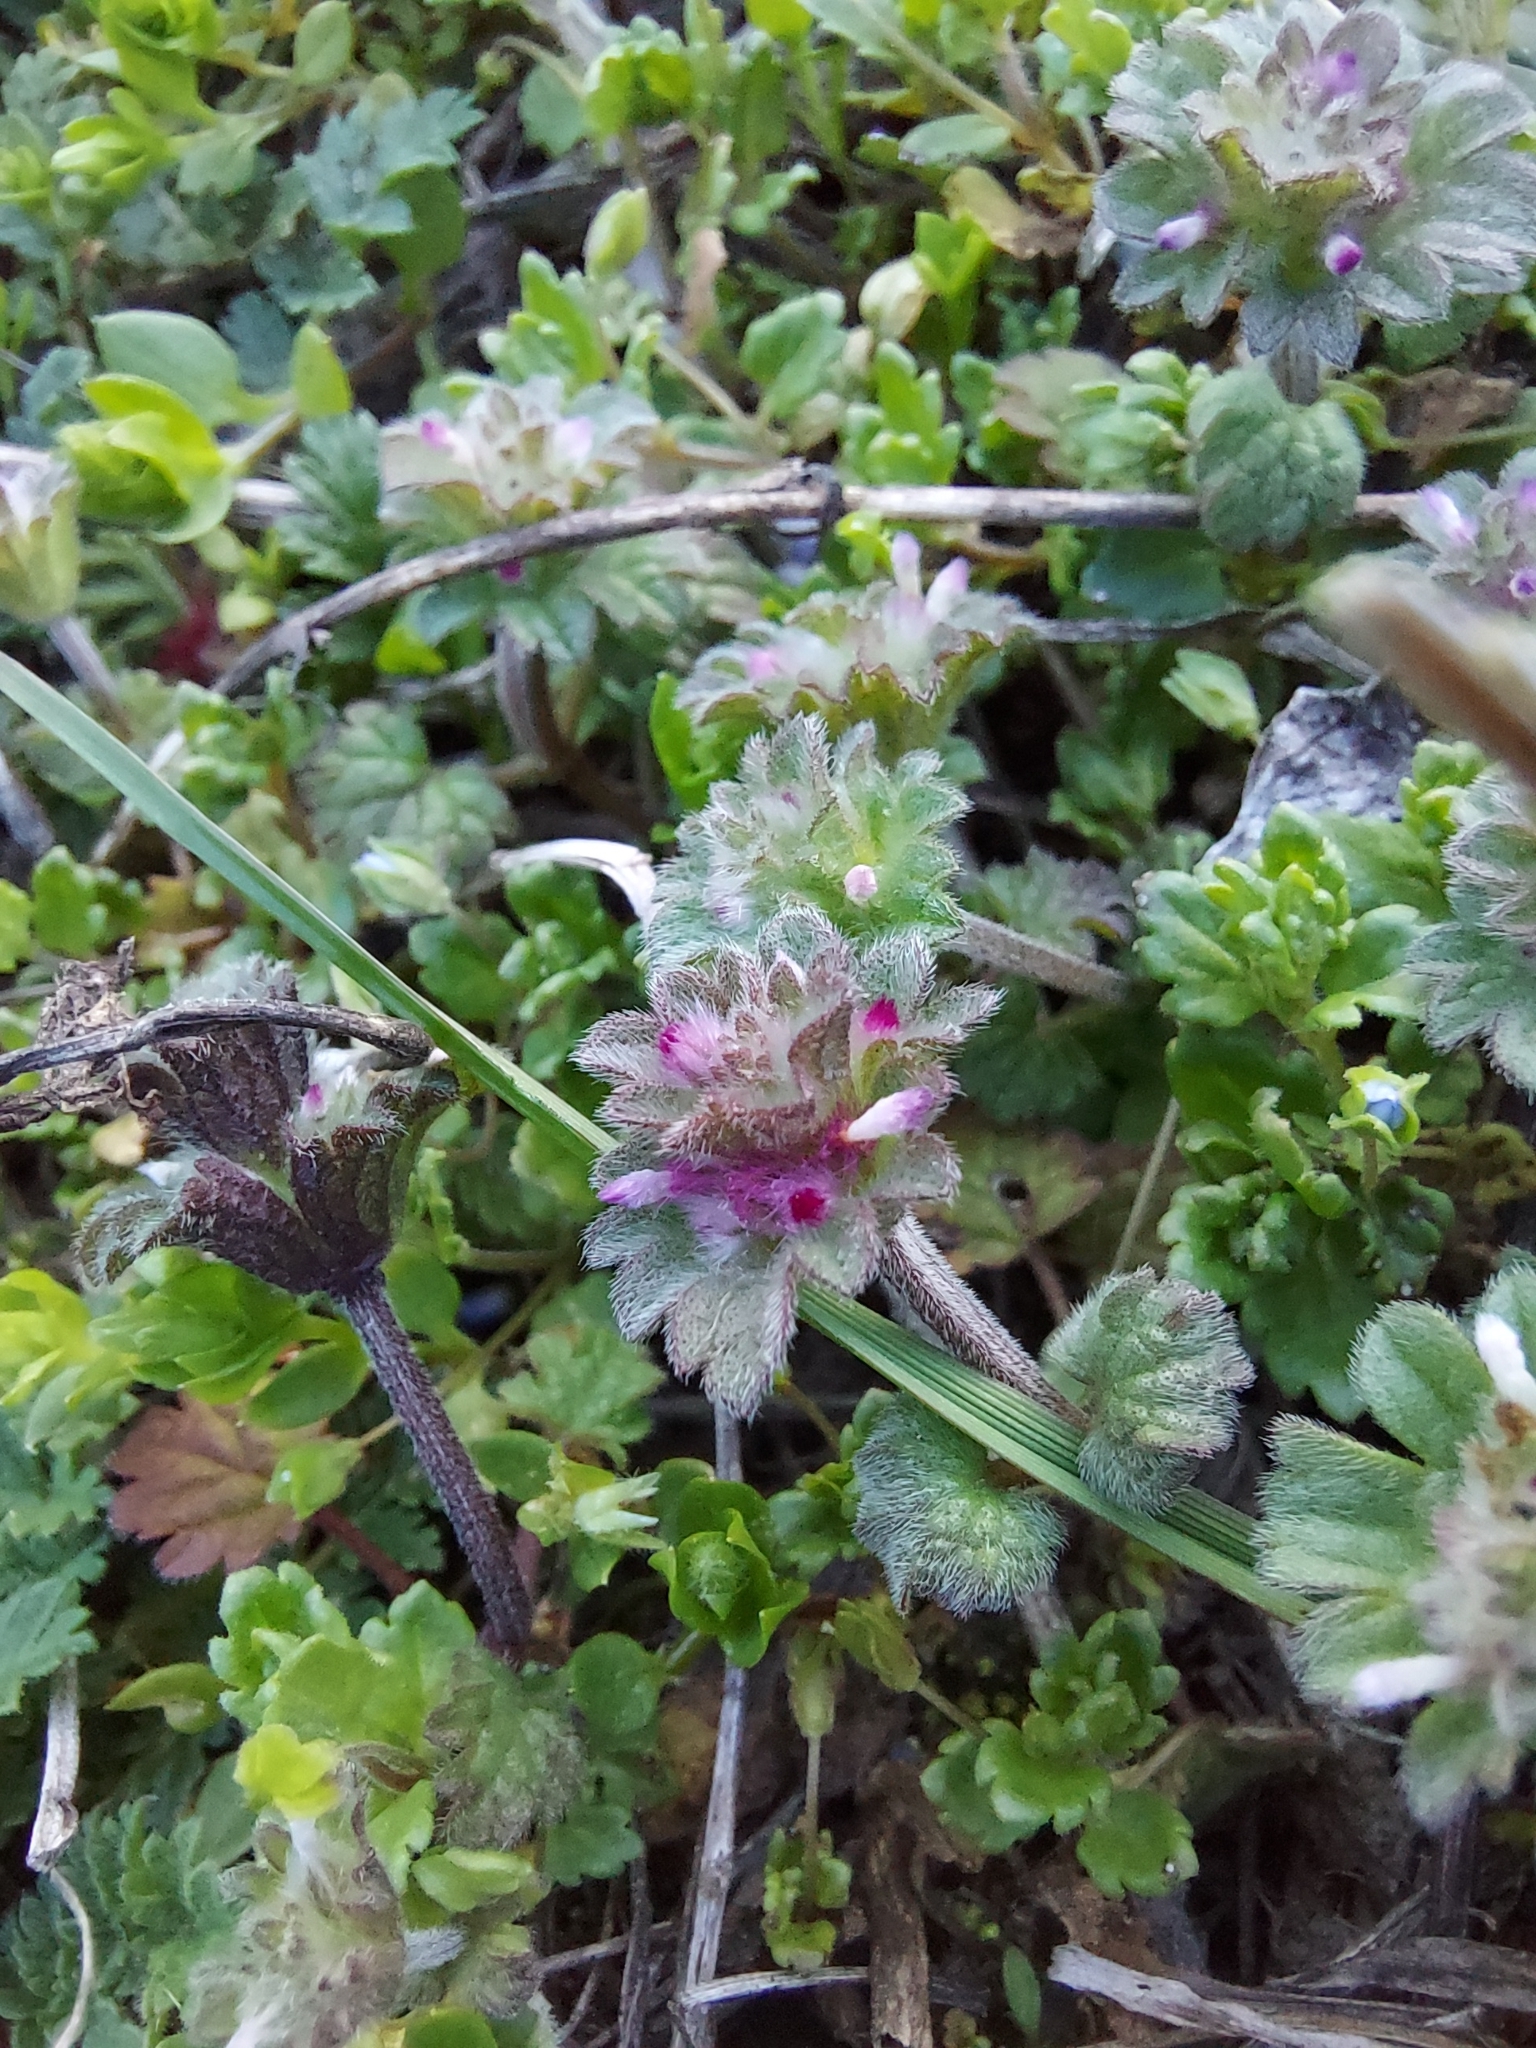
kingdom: Plantae
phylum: Tracheophyta
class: Magnoliopsida
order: Lamiales
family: Lamiaceae
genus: Lamium
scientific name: Lamium amplexicaule
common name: Henbit dead-nettle
